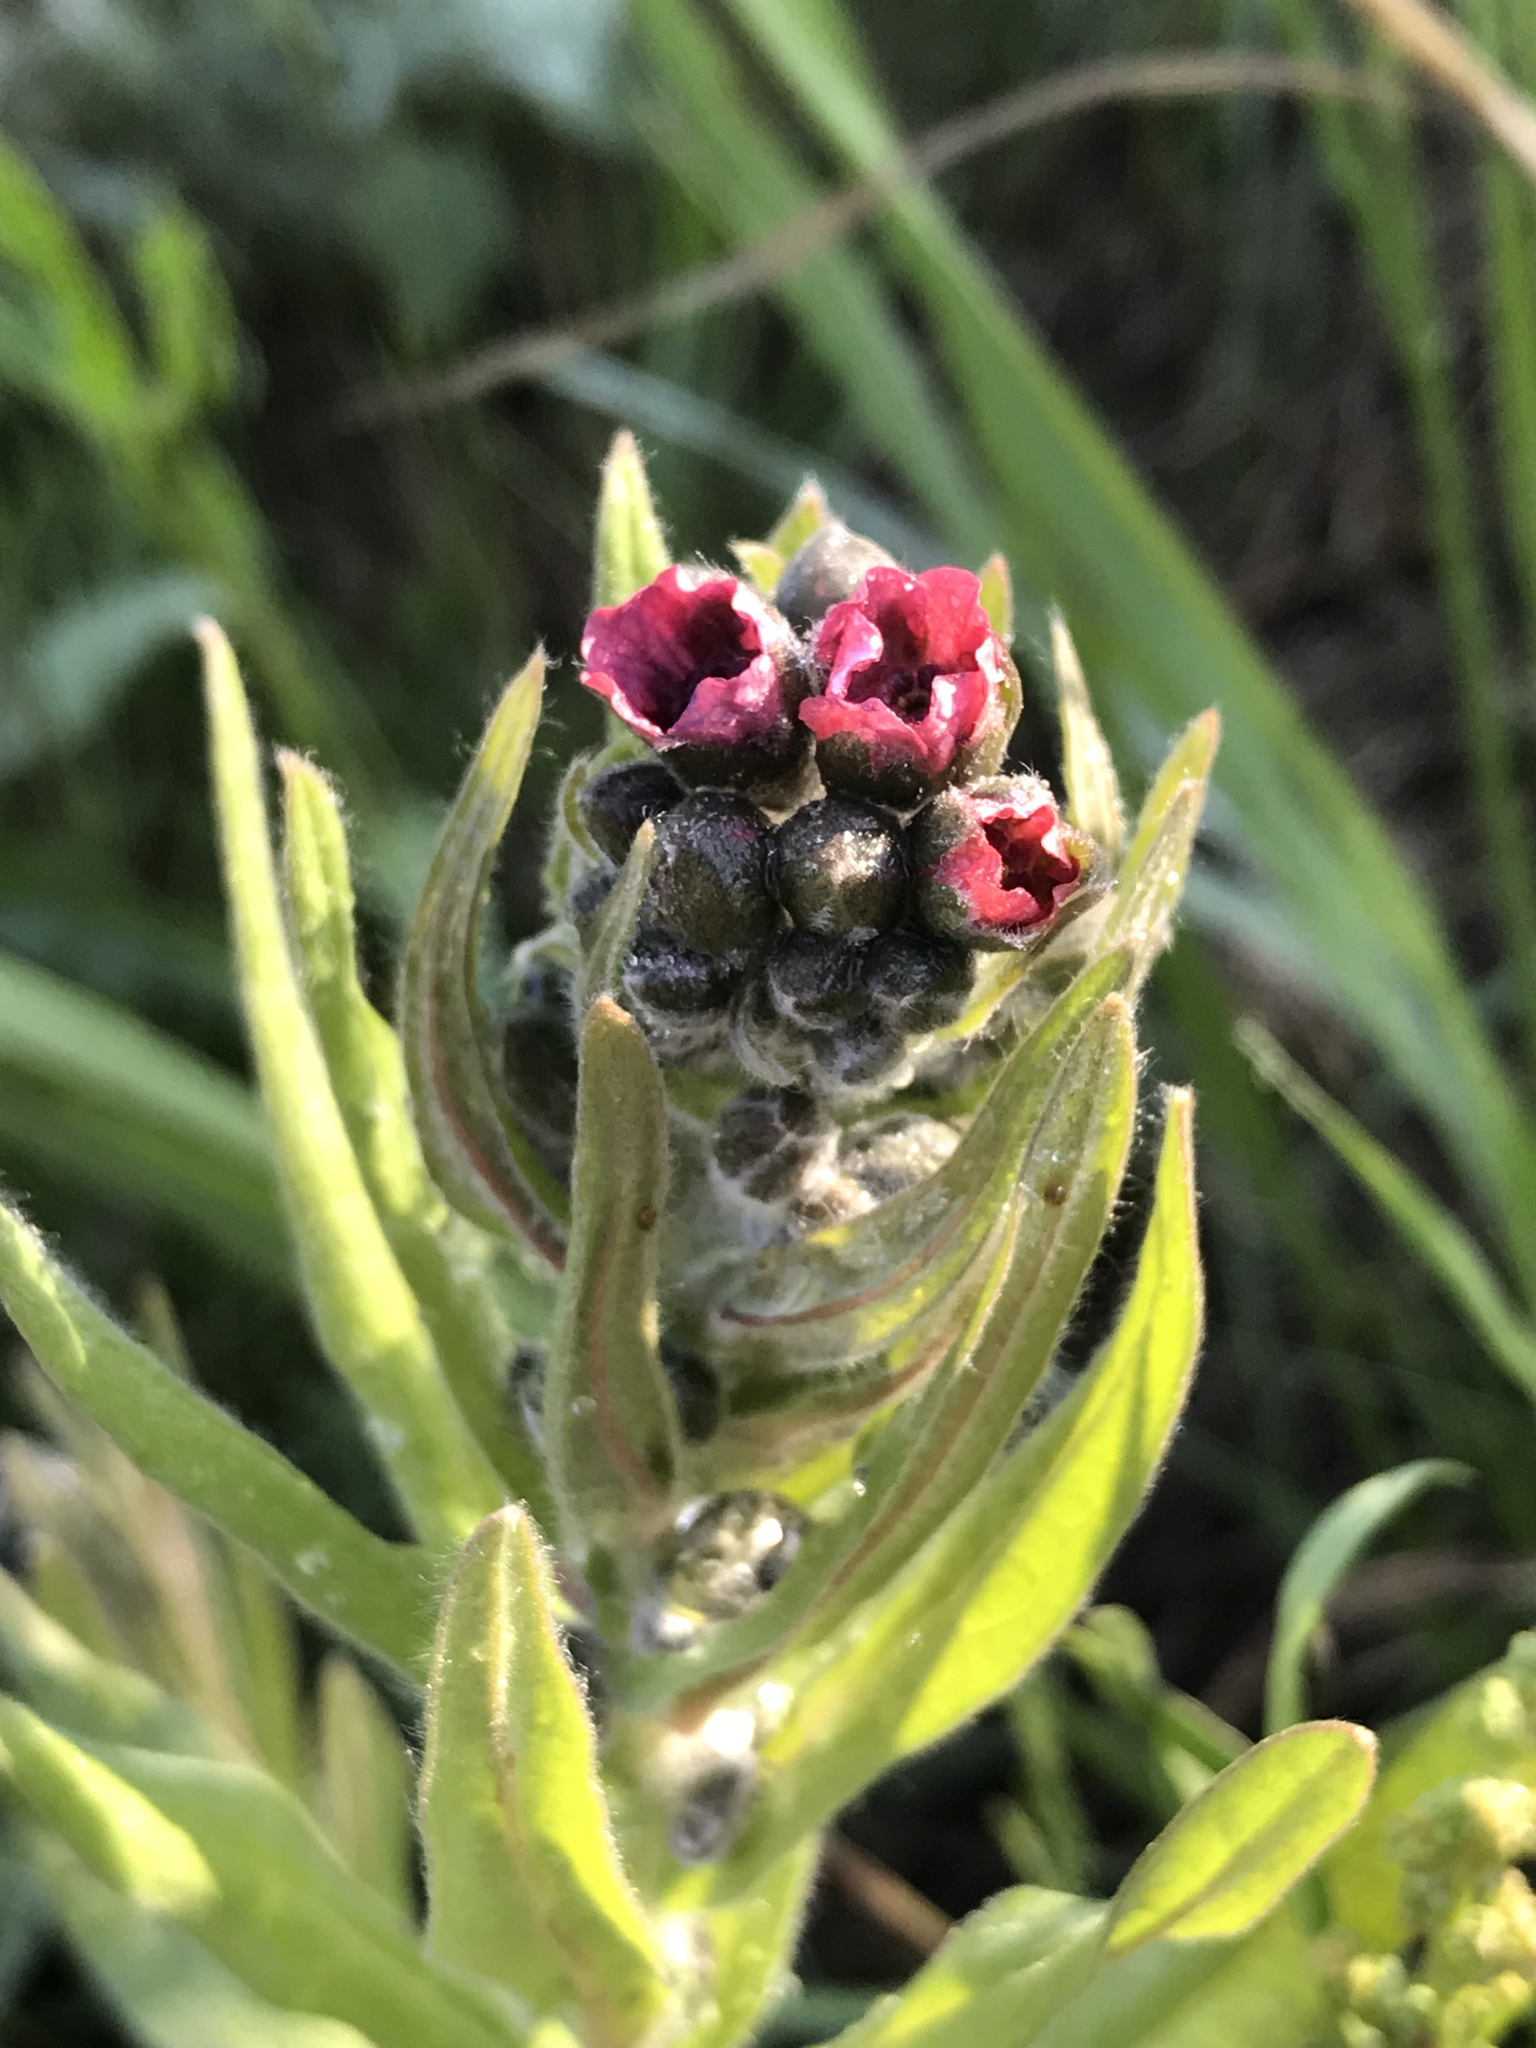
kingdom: Plantae
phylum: Tracheophyta
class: Magnoliopsida
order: Boraginales
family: Boraginaceae
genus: Cynoglossum
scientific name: Cynoglossum officinale
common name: Hound's-tongue
